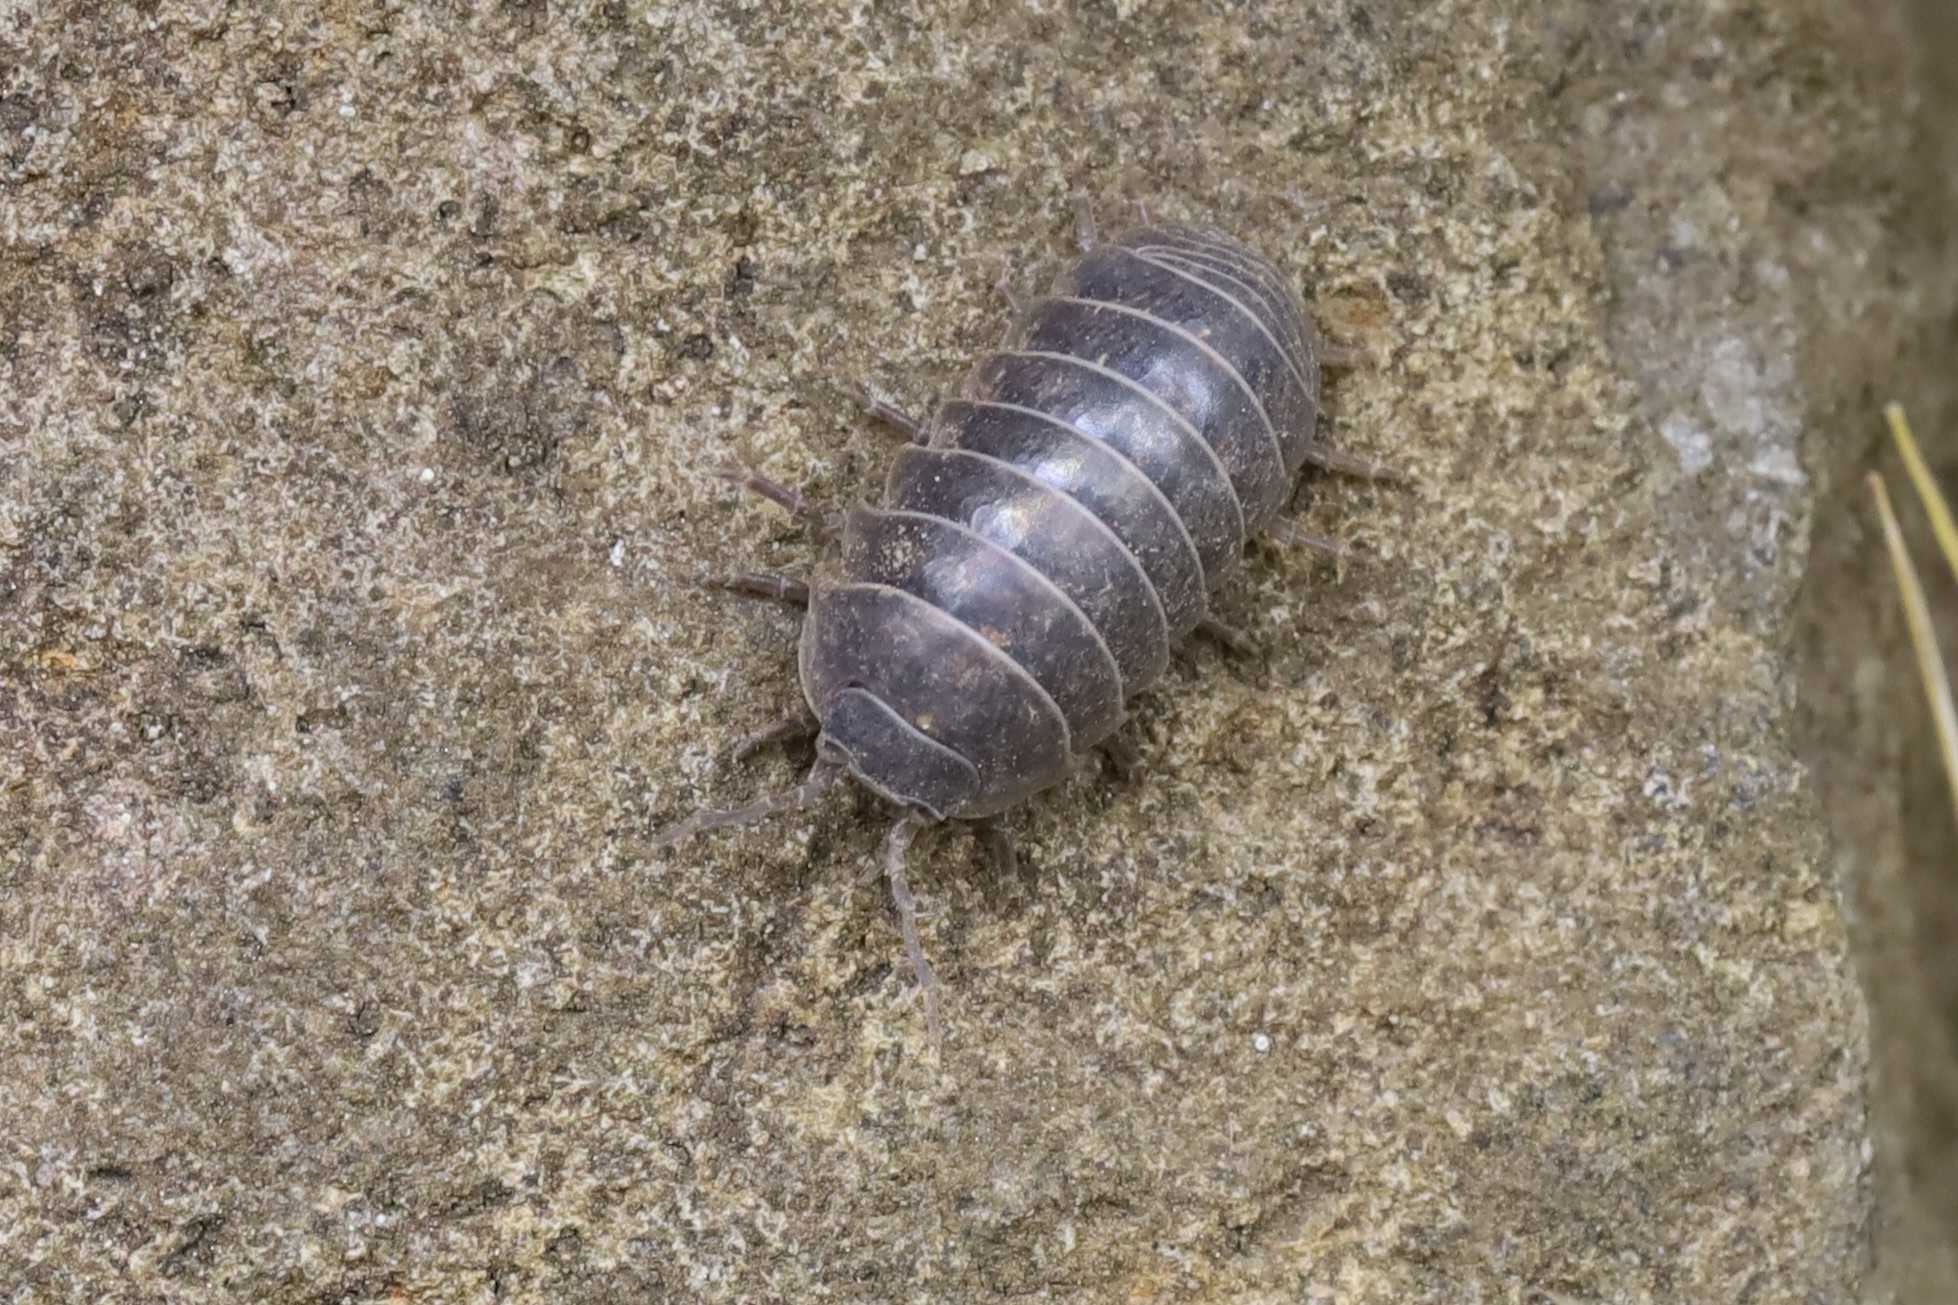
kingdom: Animalia
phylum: Arthropoda
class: Malacostraca
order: Isopoda
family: Armadillidiidae
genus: Armadillidium
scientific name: Armadillidium vulgare
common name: Common pill woodlouse
